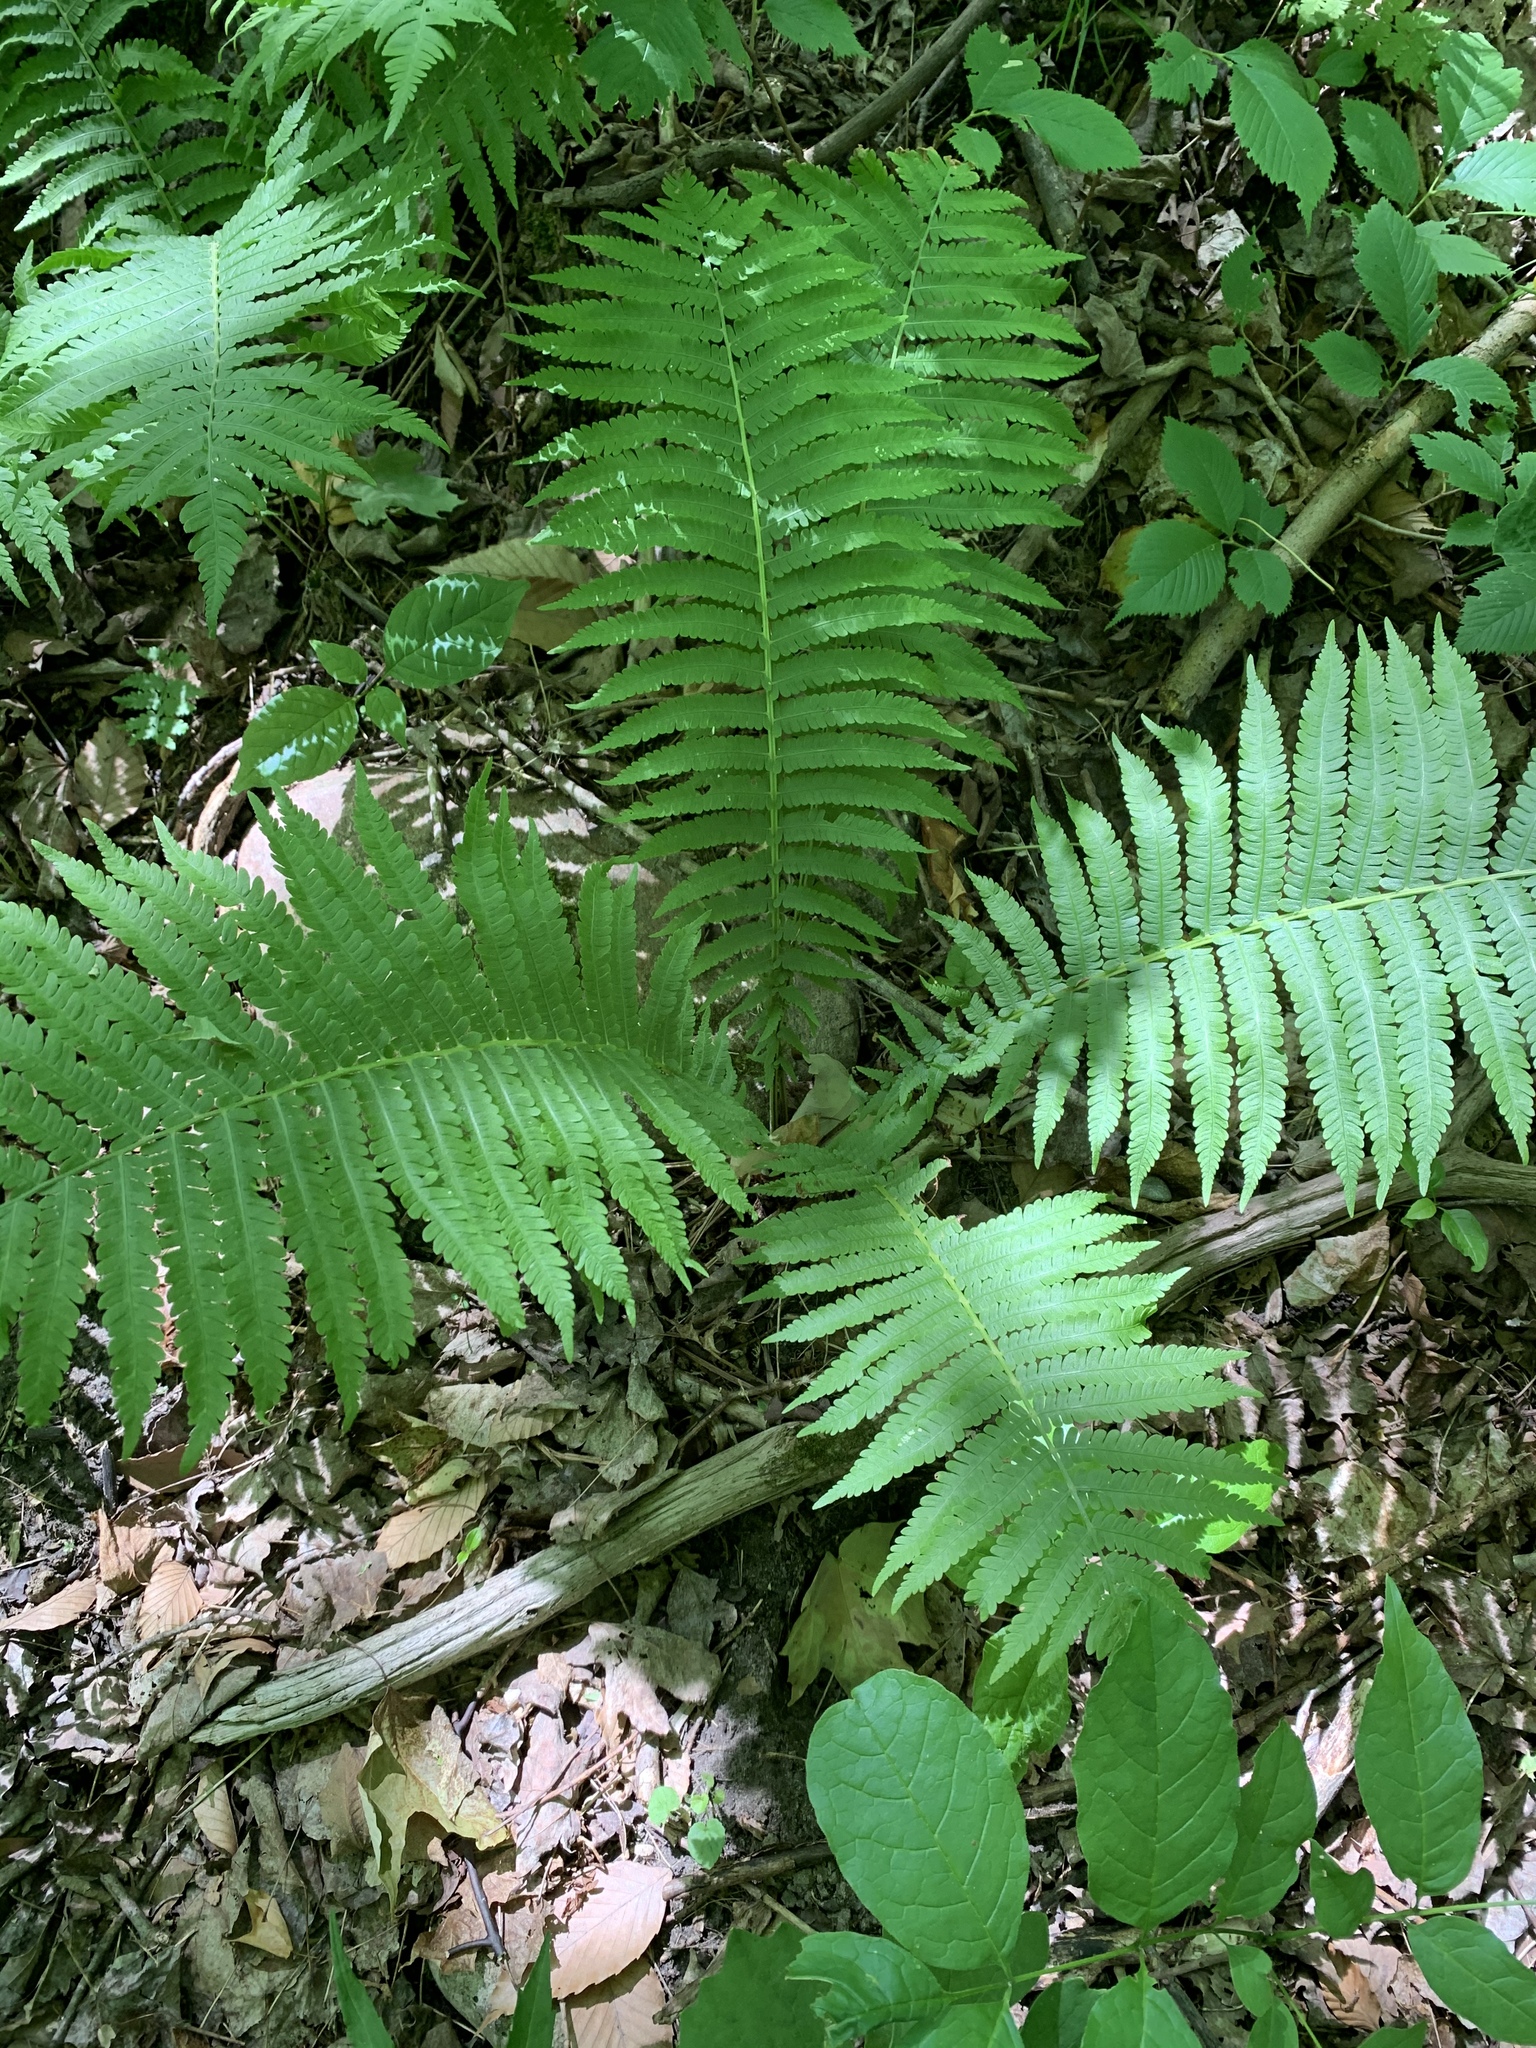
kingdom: Plantae
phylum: Tracheophyta
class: Polypodiopsida
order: Polypodiales
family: Onocleaceae
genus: Matteuccia
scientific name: Matteuccia struthiopteris
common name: Ostrich fern
